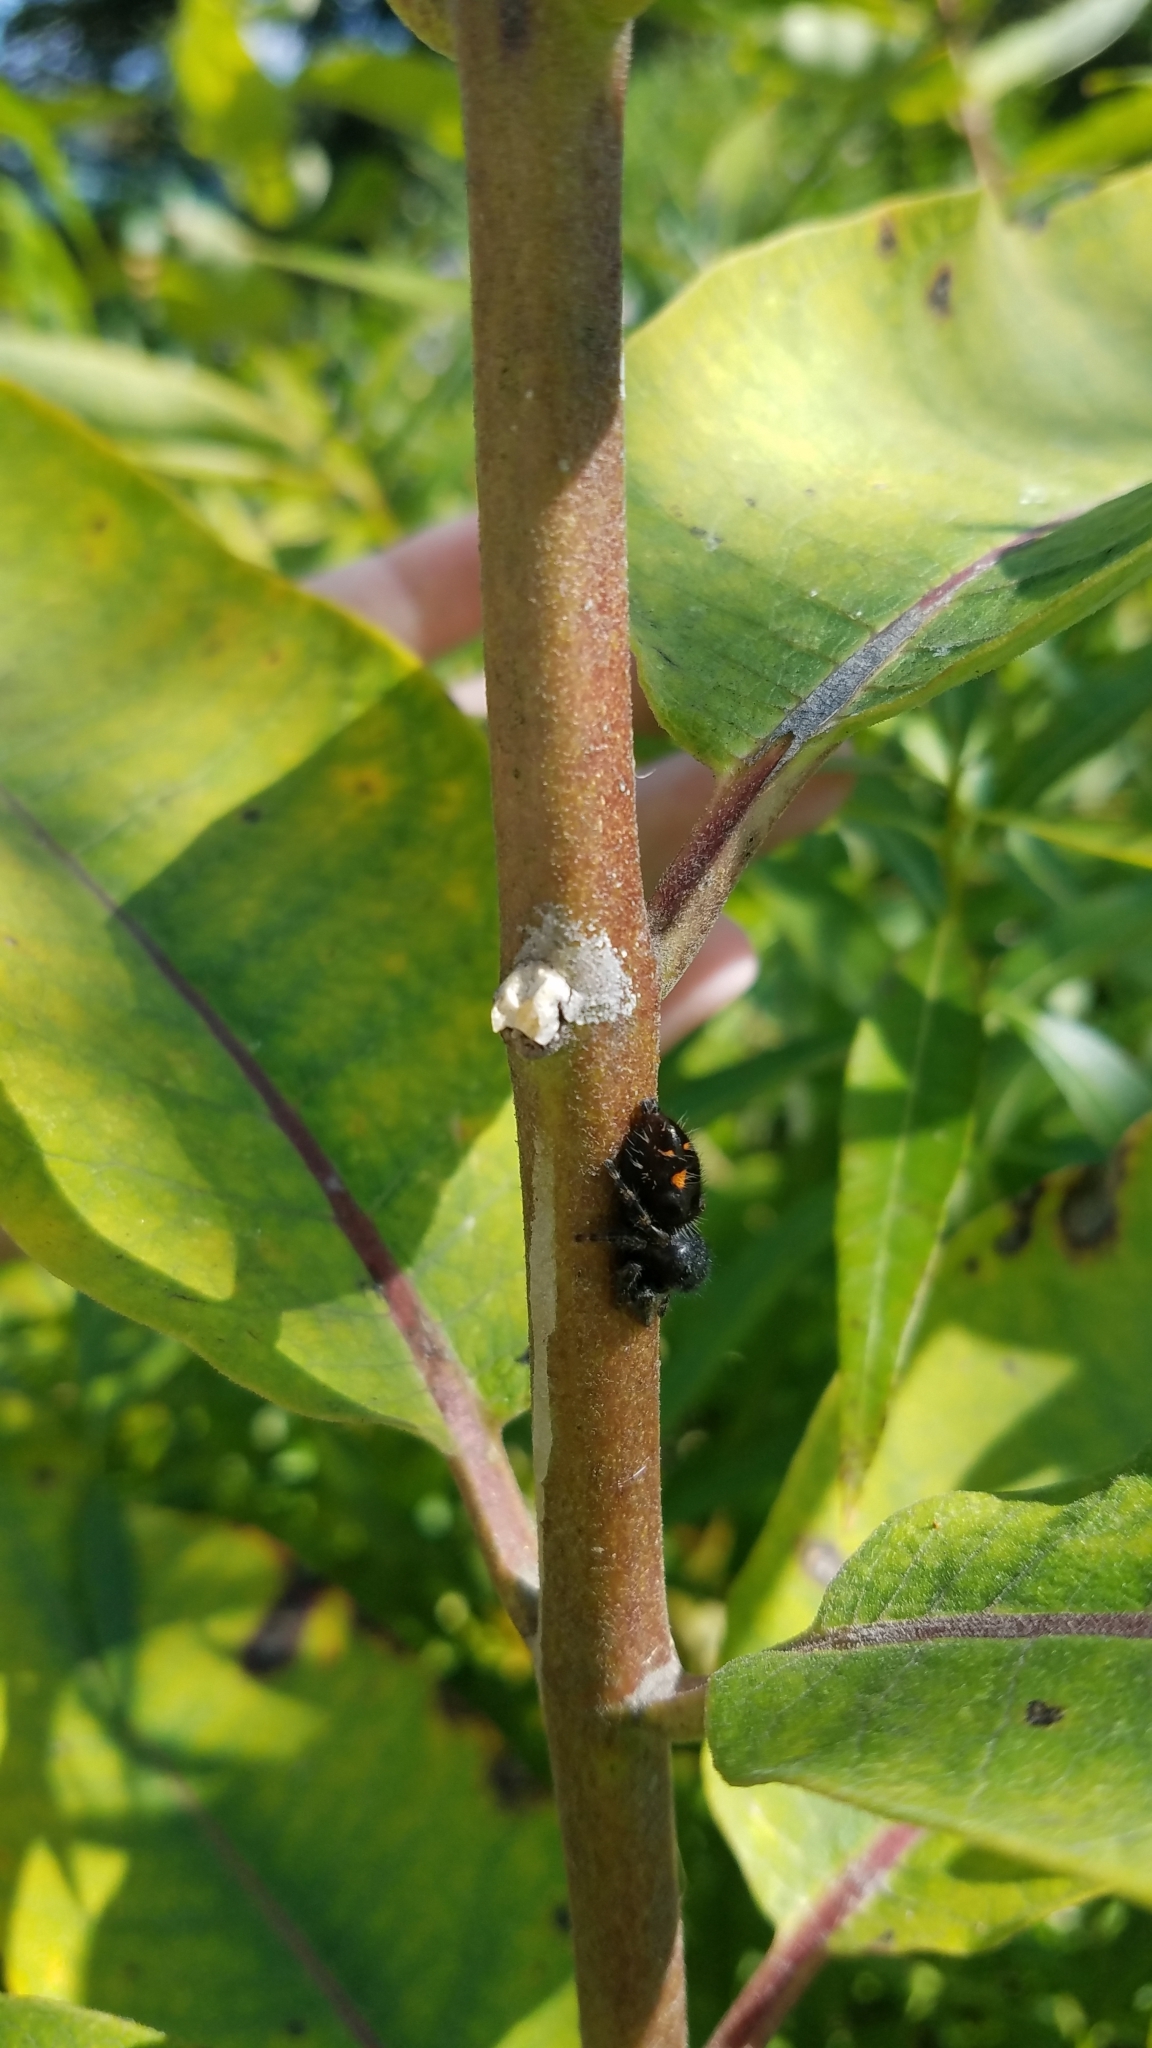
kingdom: Animalia
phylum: Arthropoda
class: Arachnida
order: Araneae
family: Salticidae
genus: Phidippus
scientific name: Phidippus audax
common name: Bold jumper
